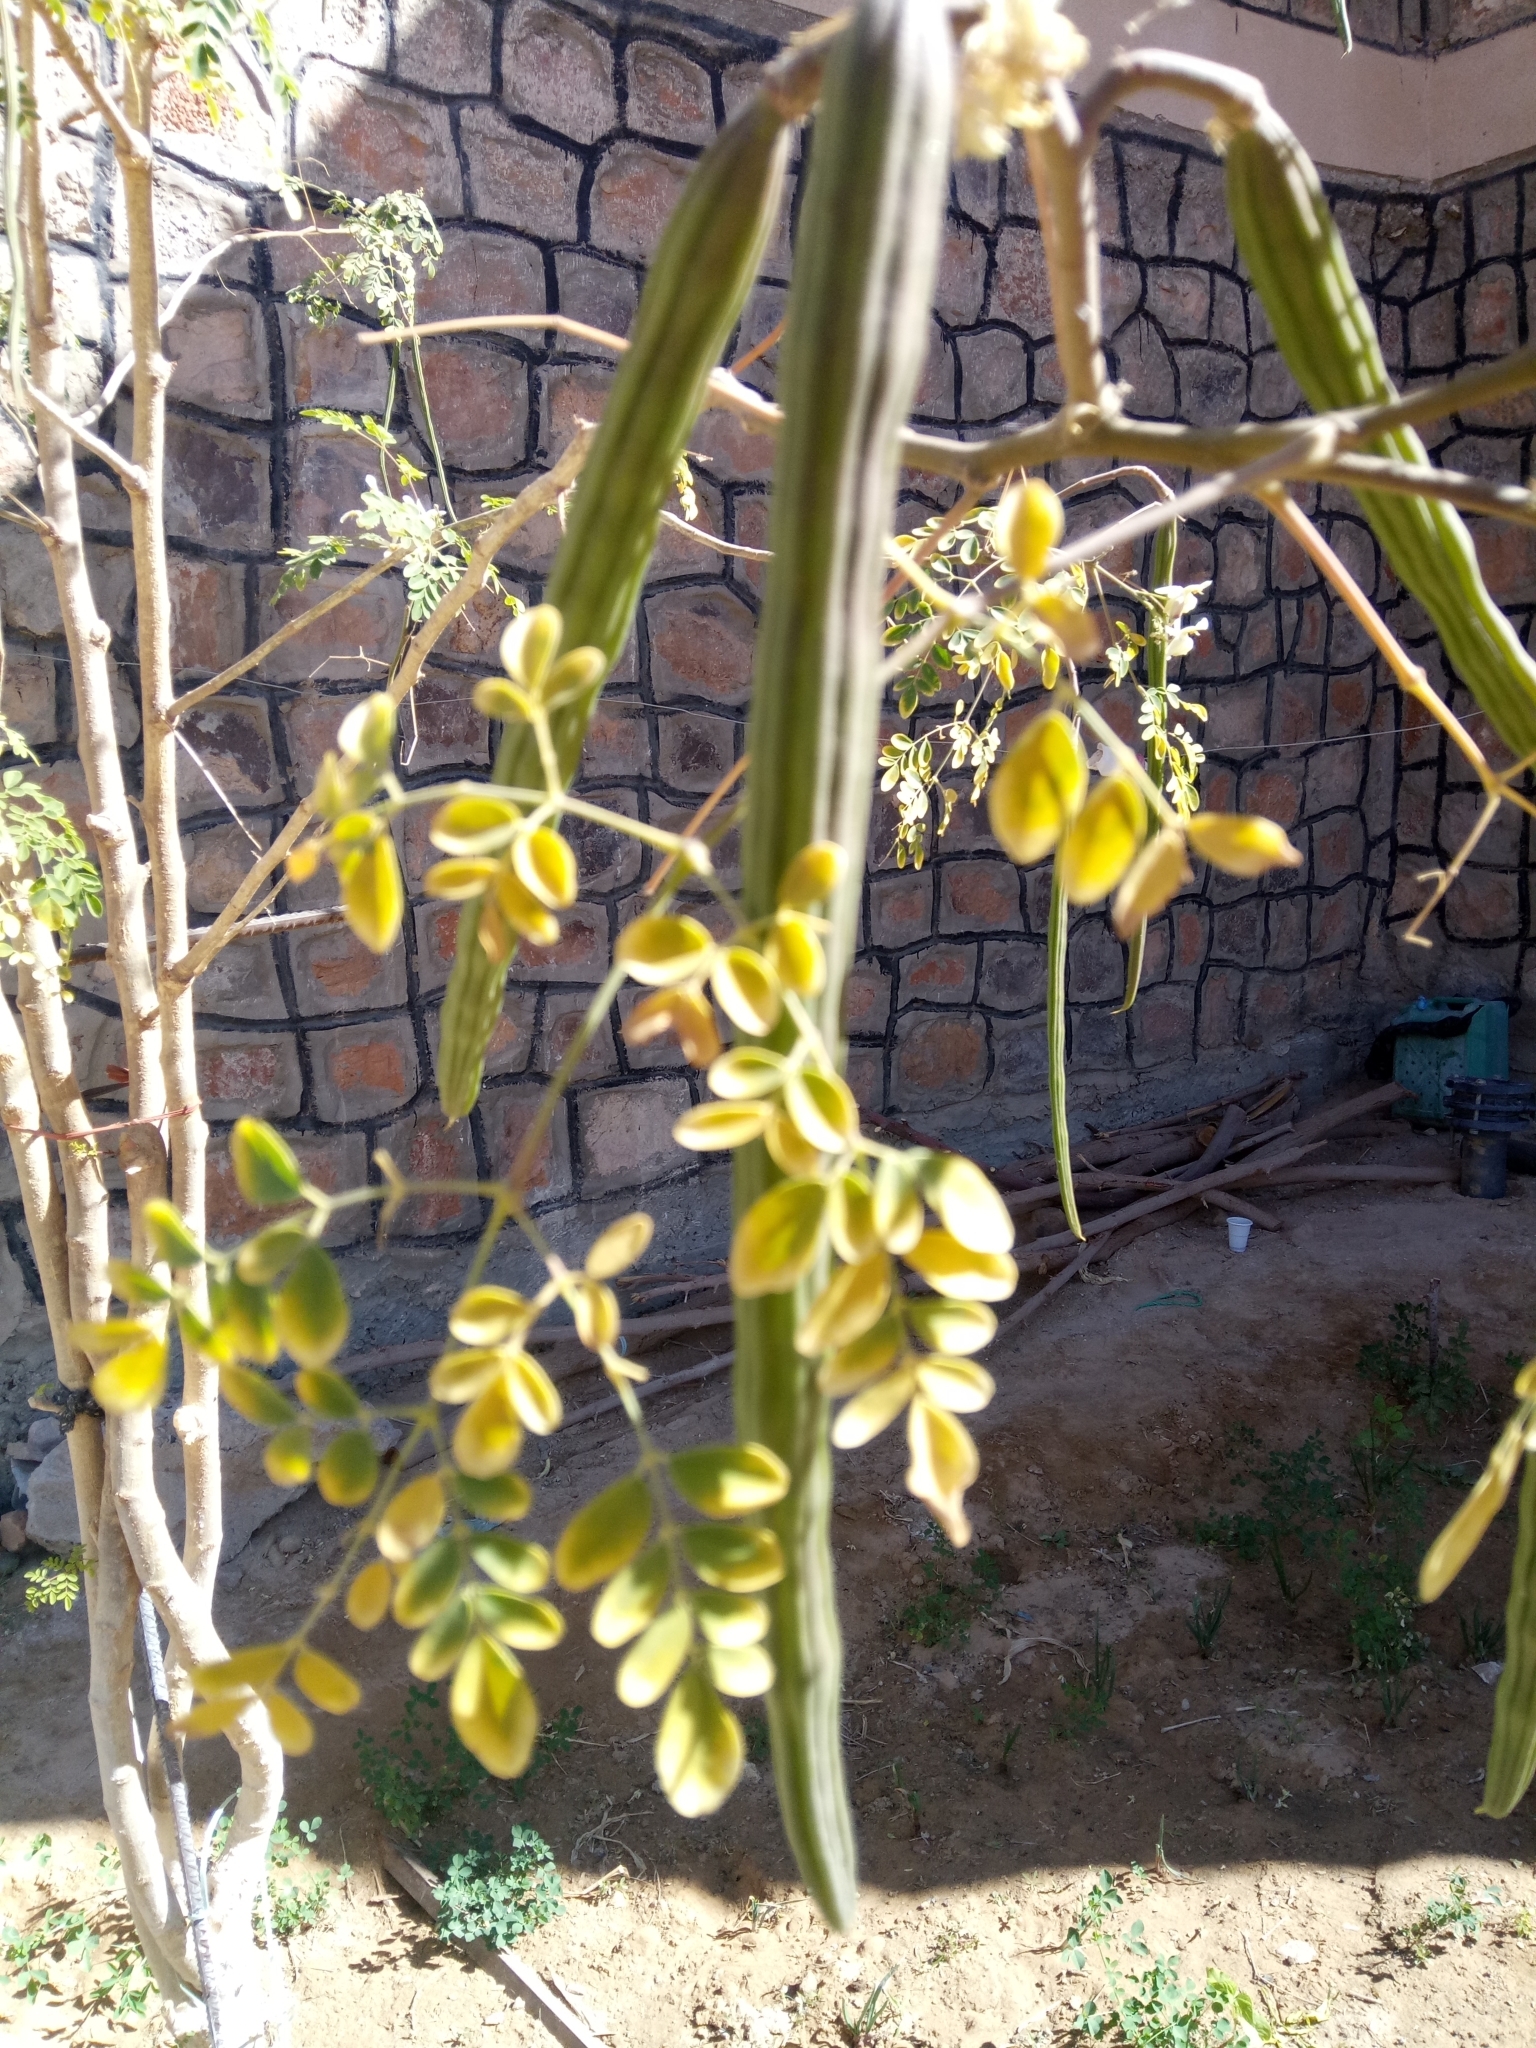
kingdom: Plantae
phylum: Tracheophyta
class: Magnoliopsida
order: Brassicales
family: Moringaceae
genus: Moringa
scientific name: Moringa oleifera
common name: Horseradish-tree
